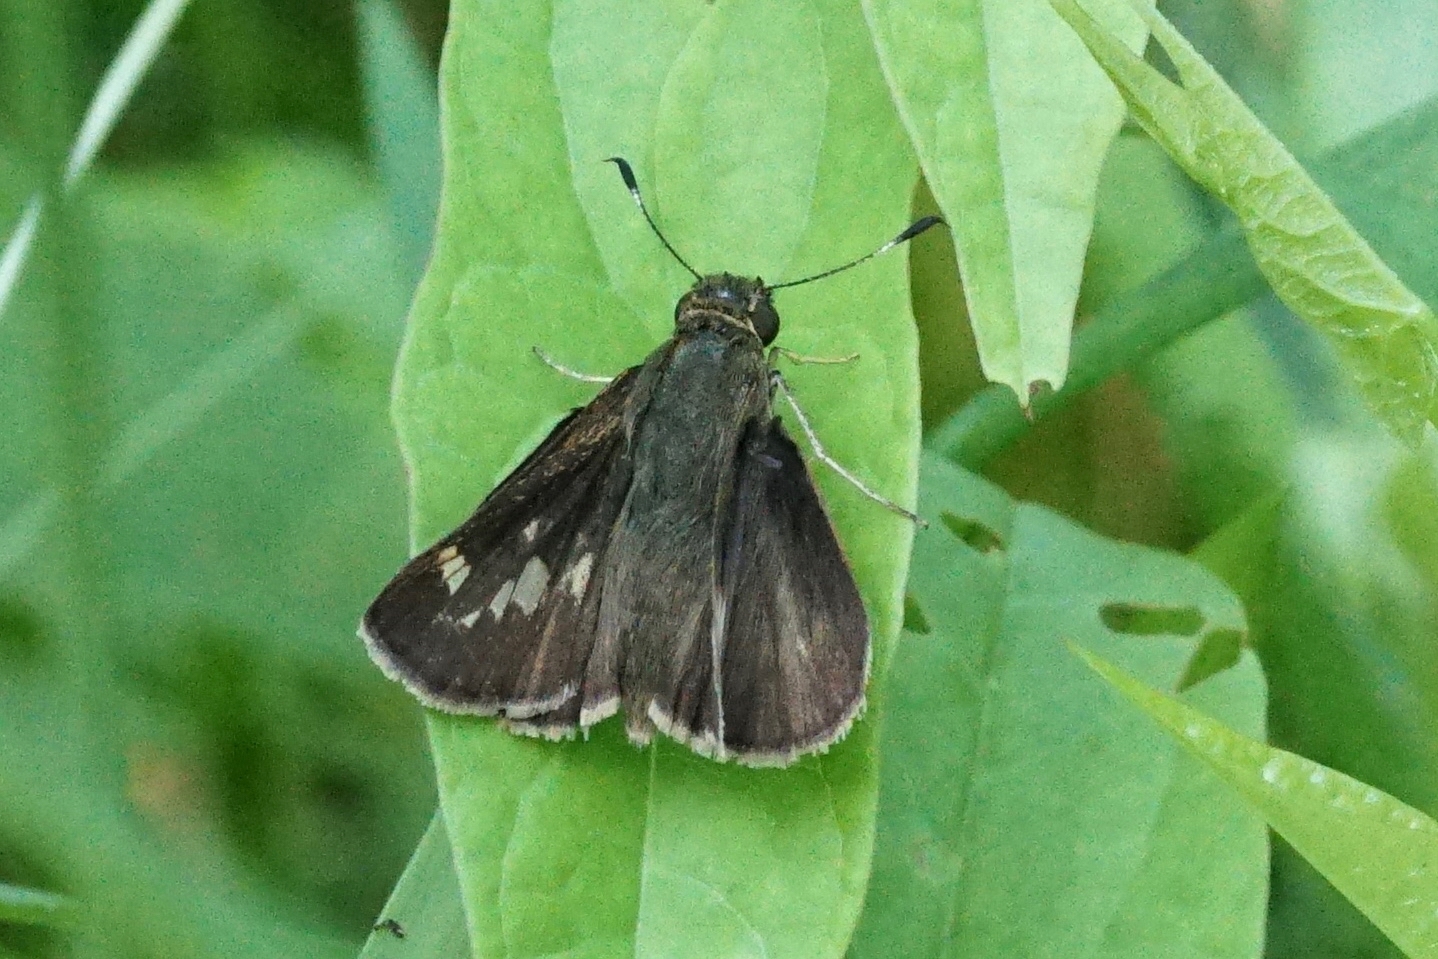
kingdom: Animalia
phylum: Arthropoda
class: Insecta
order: Lepidoptera
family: Hesperiidae
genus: Vernia
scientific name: Vernia verna
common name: Little glassywing
